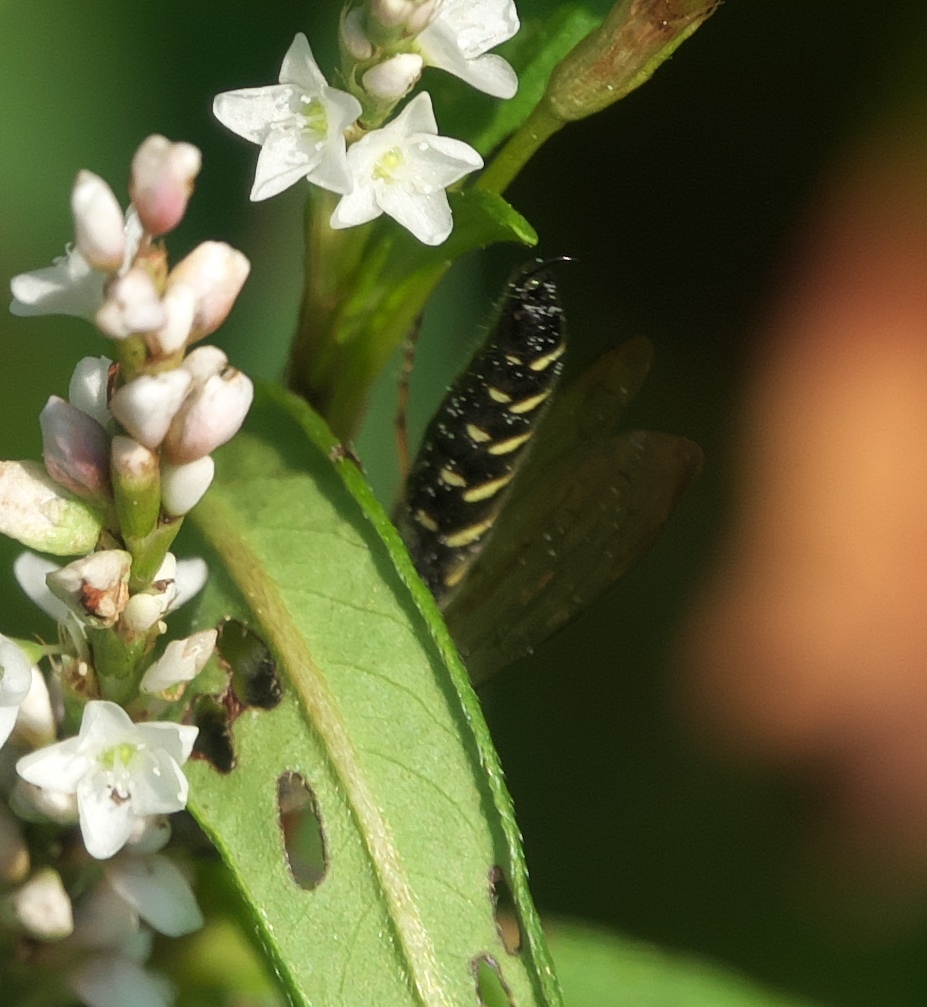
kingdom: Animalia
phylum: Arthropoda
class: Insecta
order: Hymenoptera
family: Tiphiidae
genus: Myzinum
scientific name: Myzinum
